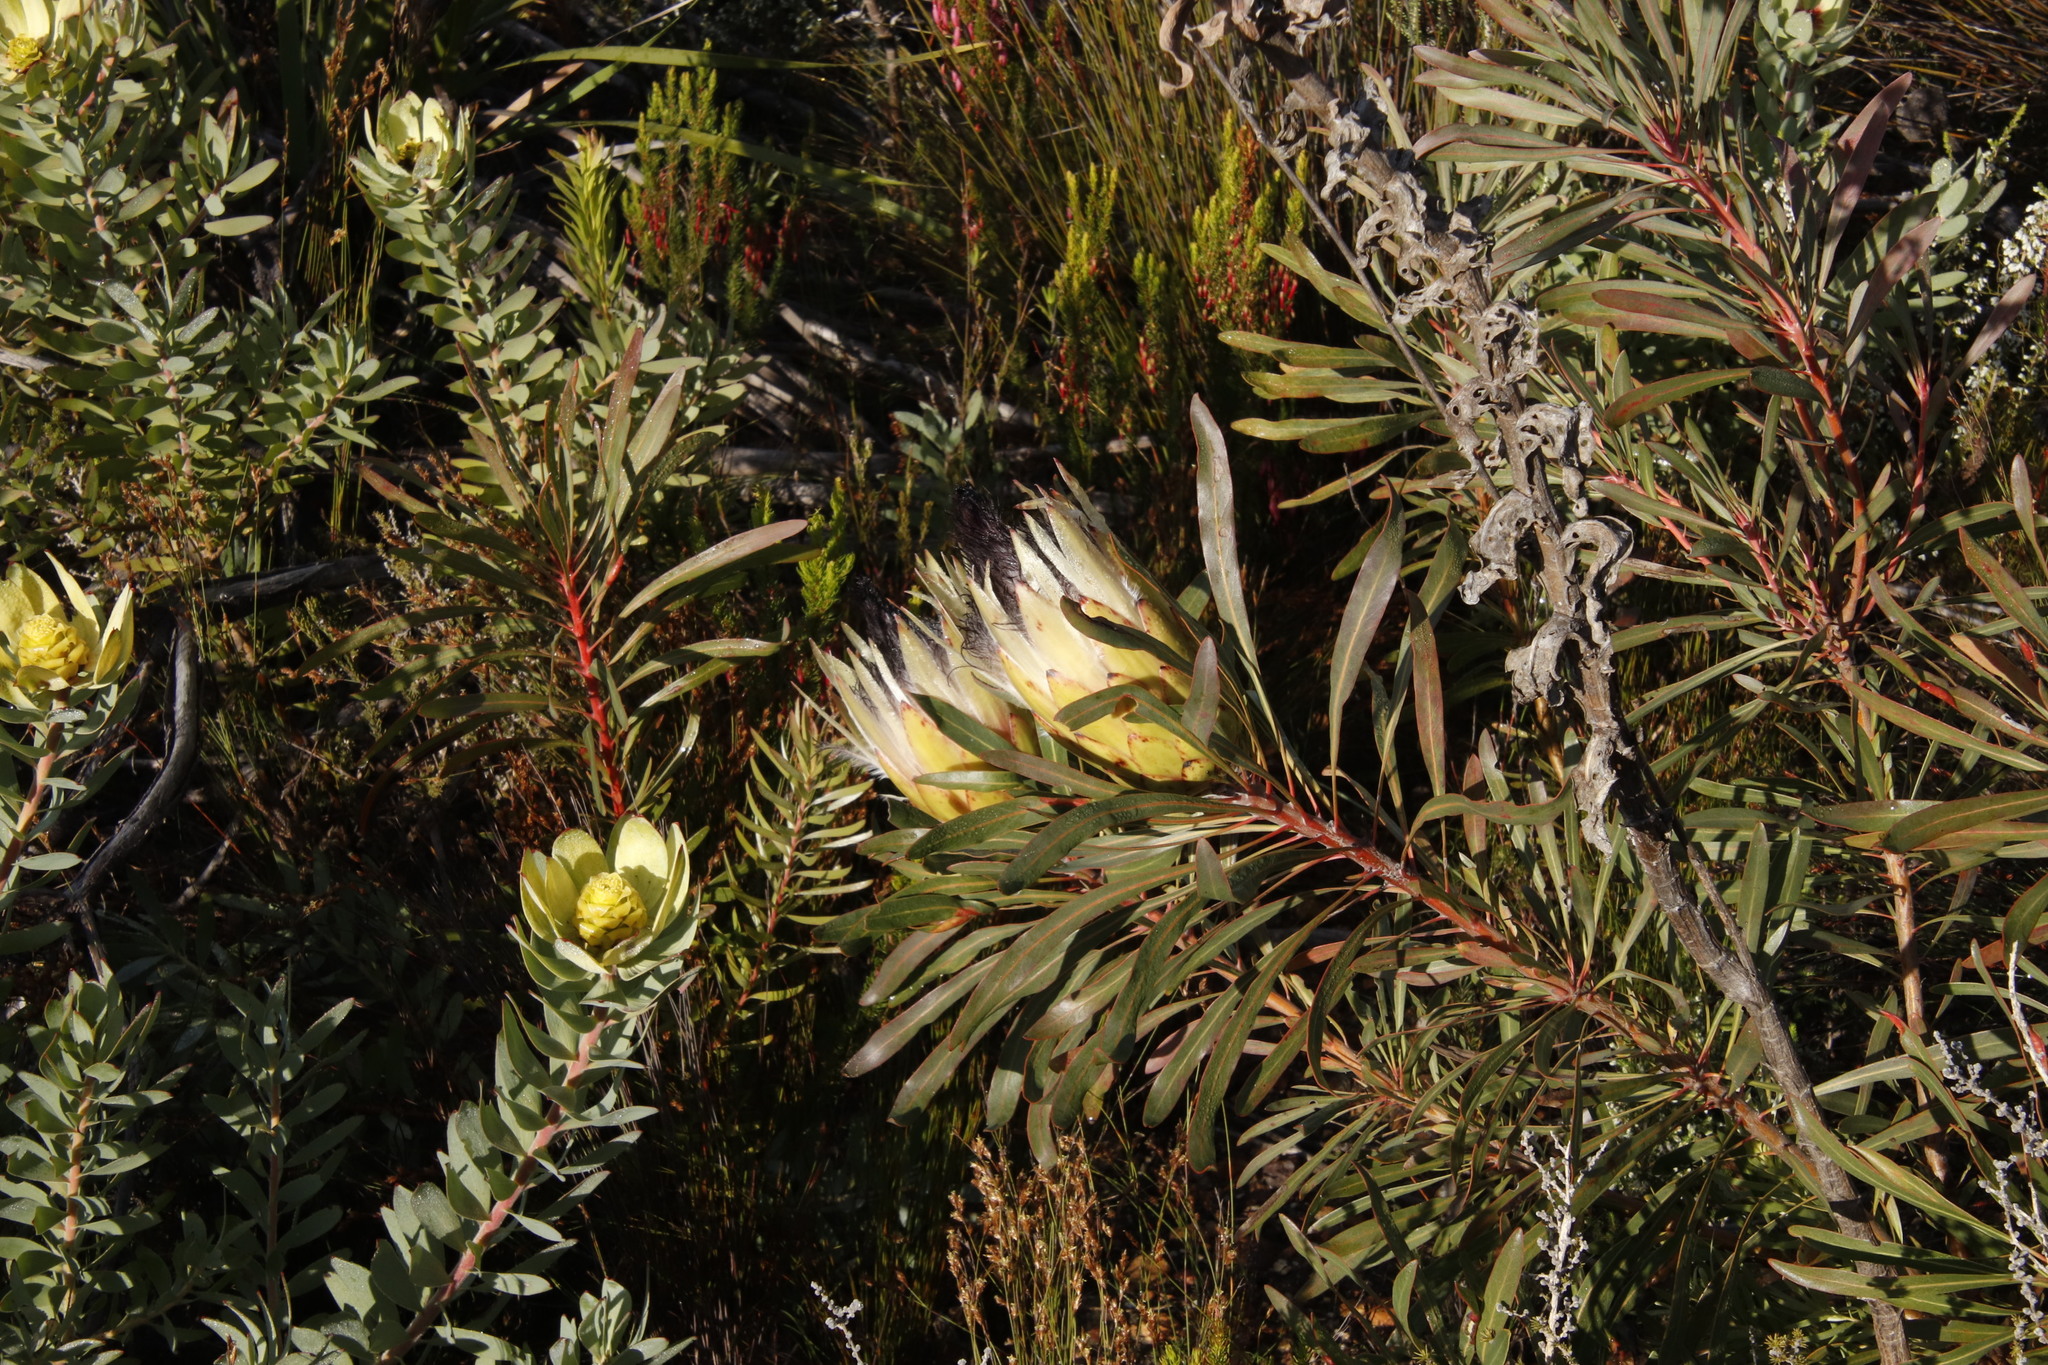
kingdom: Plantae
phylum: Tracheophyta
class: Magnoliopsida
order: Proteales
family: Proteaceae
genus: Protea
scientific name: Protea longifolia
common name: Long-leaf sugarbush
